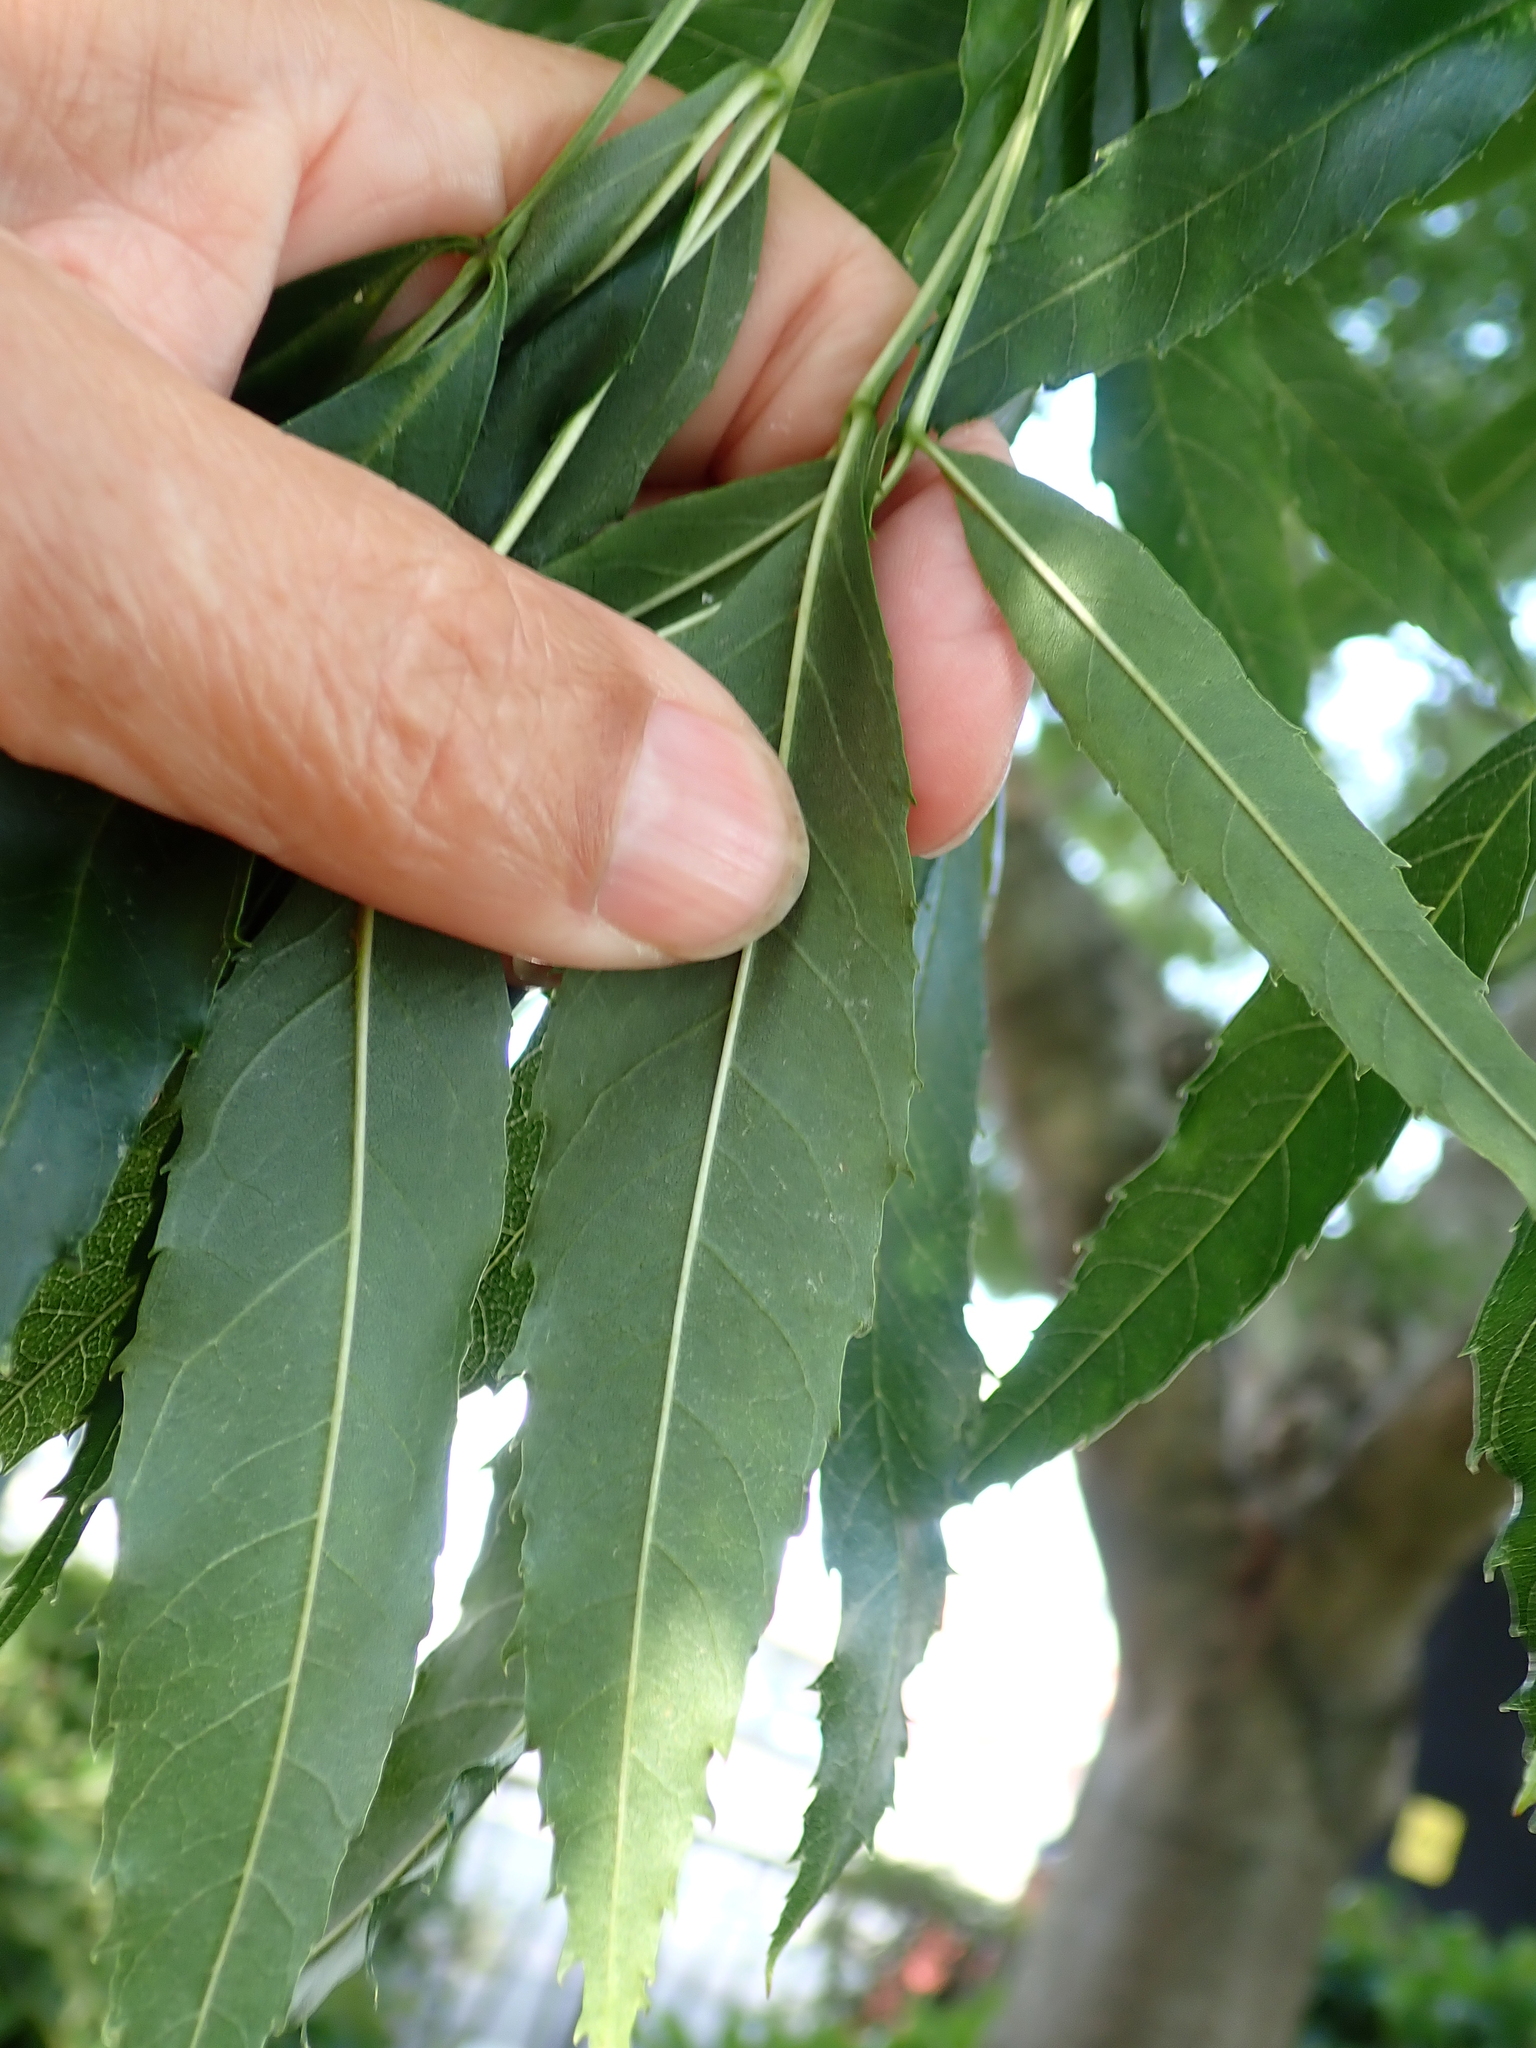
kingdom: Plantae
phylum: Tracheophyta
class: Magnoliopsida
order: Lamiales
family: Oleaceae
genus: Fraxinus
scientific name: Fraxinus angustifolia
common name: Narrow-leafed ash
